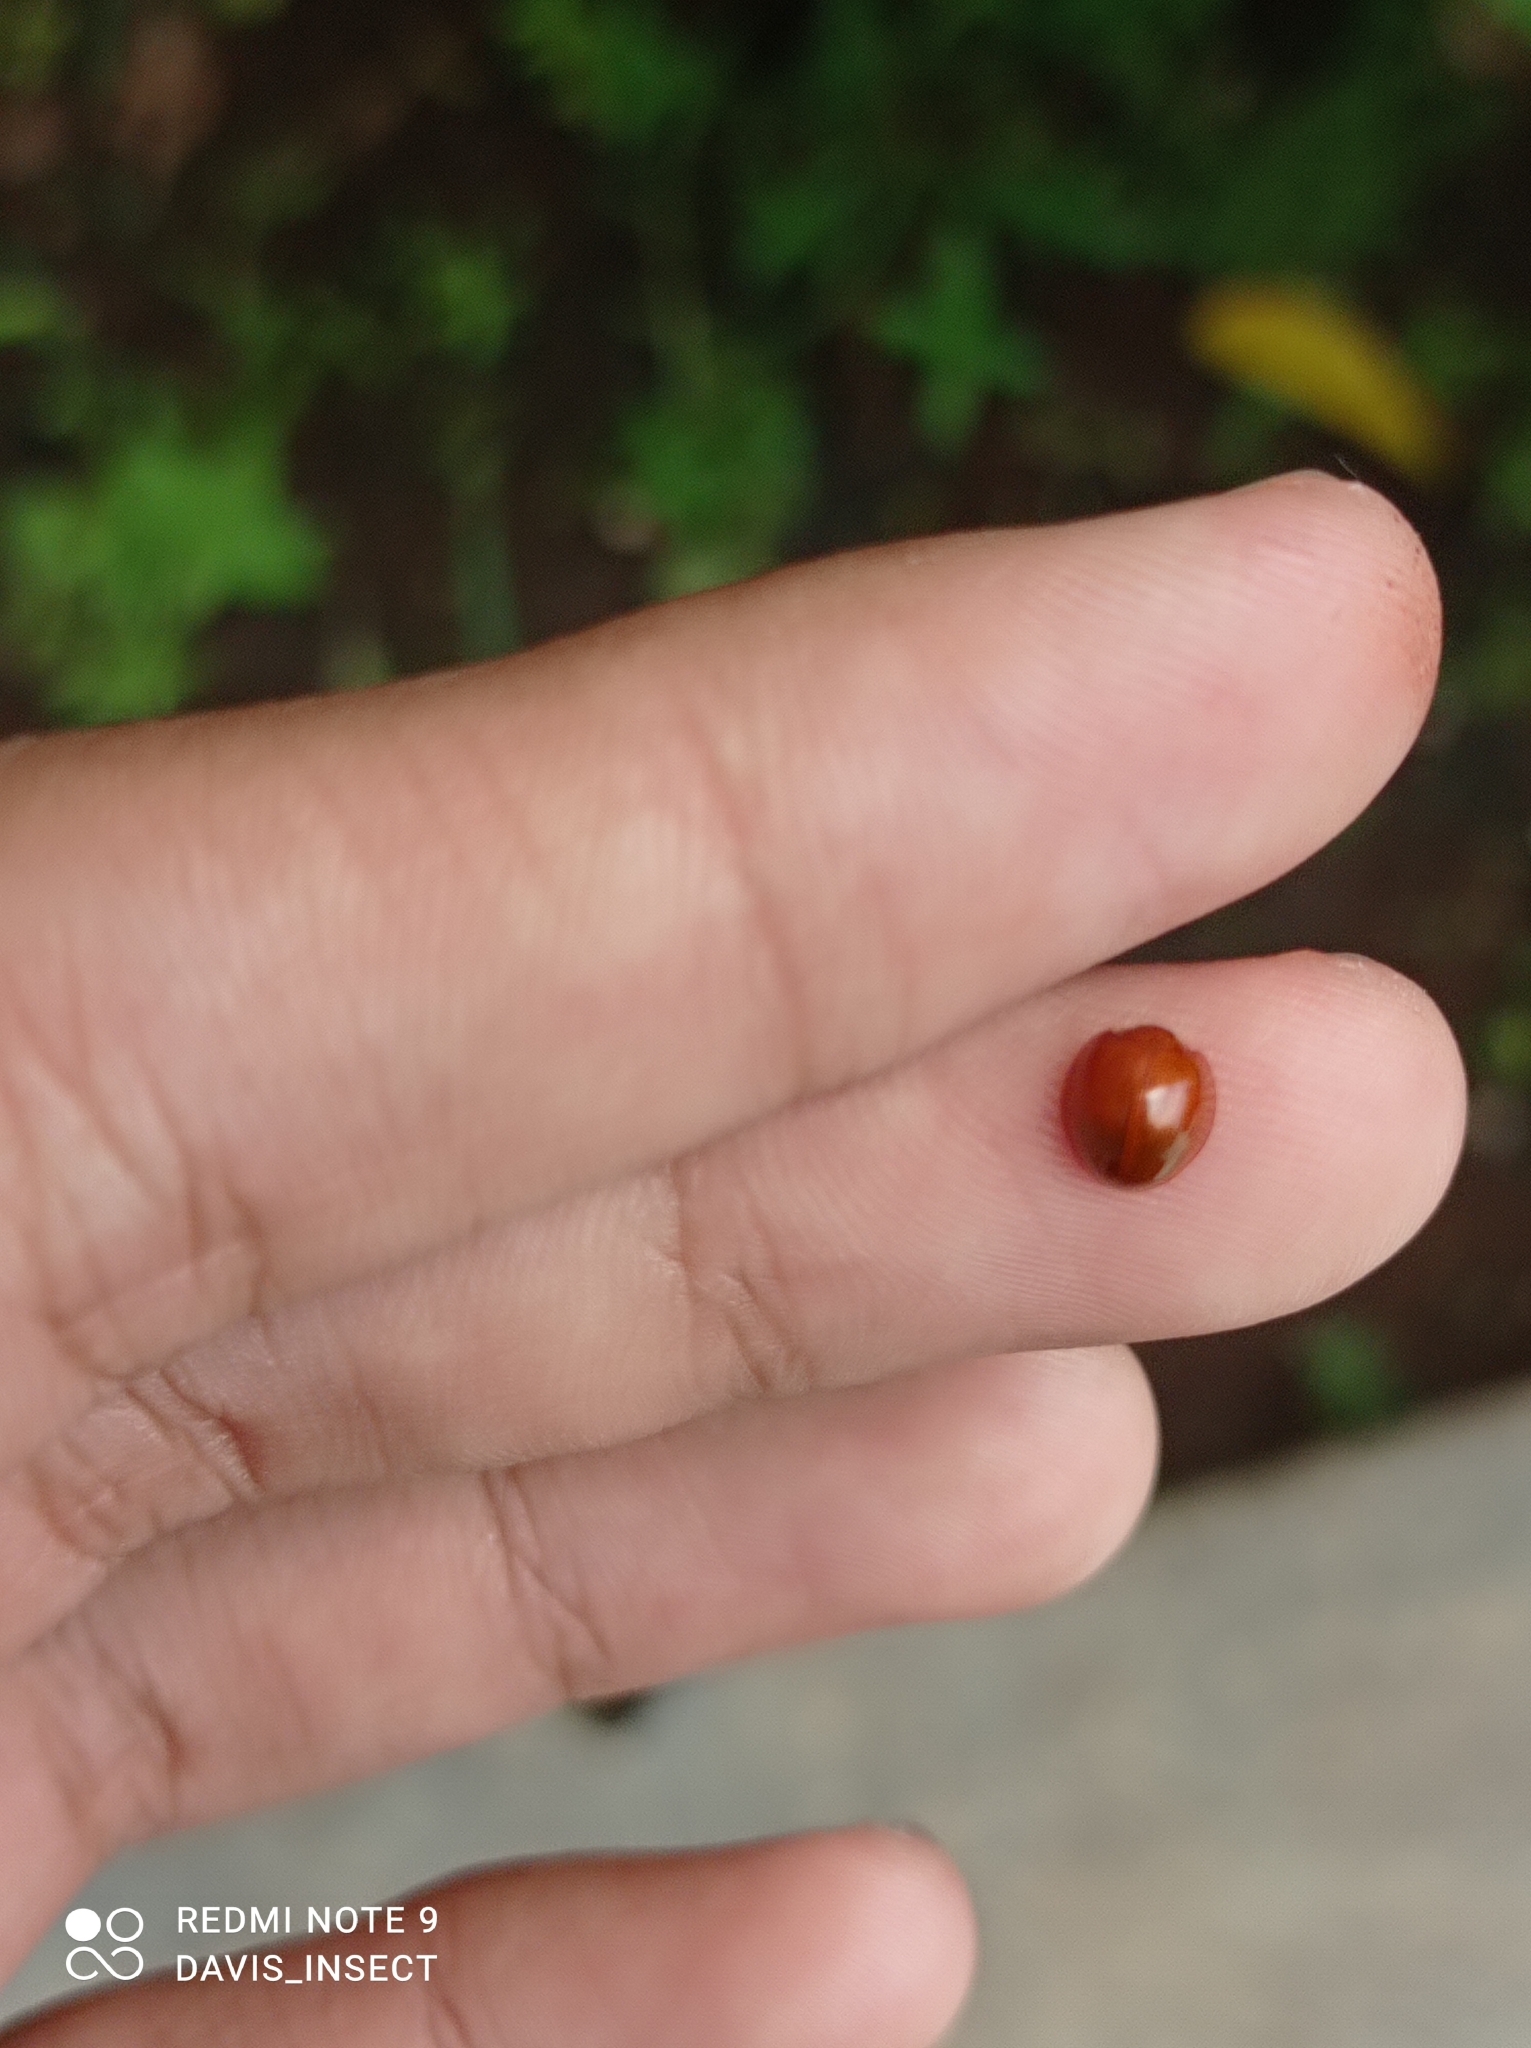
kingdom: Animalia
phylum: Arthropoda
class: Insecta
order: Coleoptera
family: Coccinellidae
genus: Chilocorus
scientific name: Chilocorus politus
